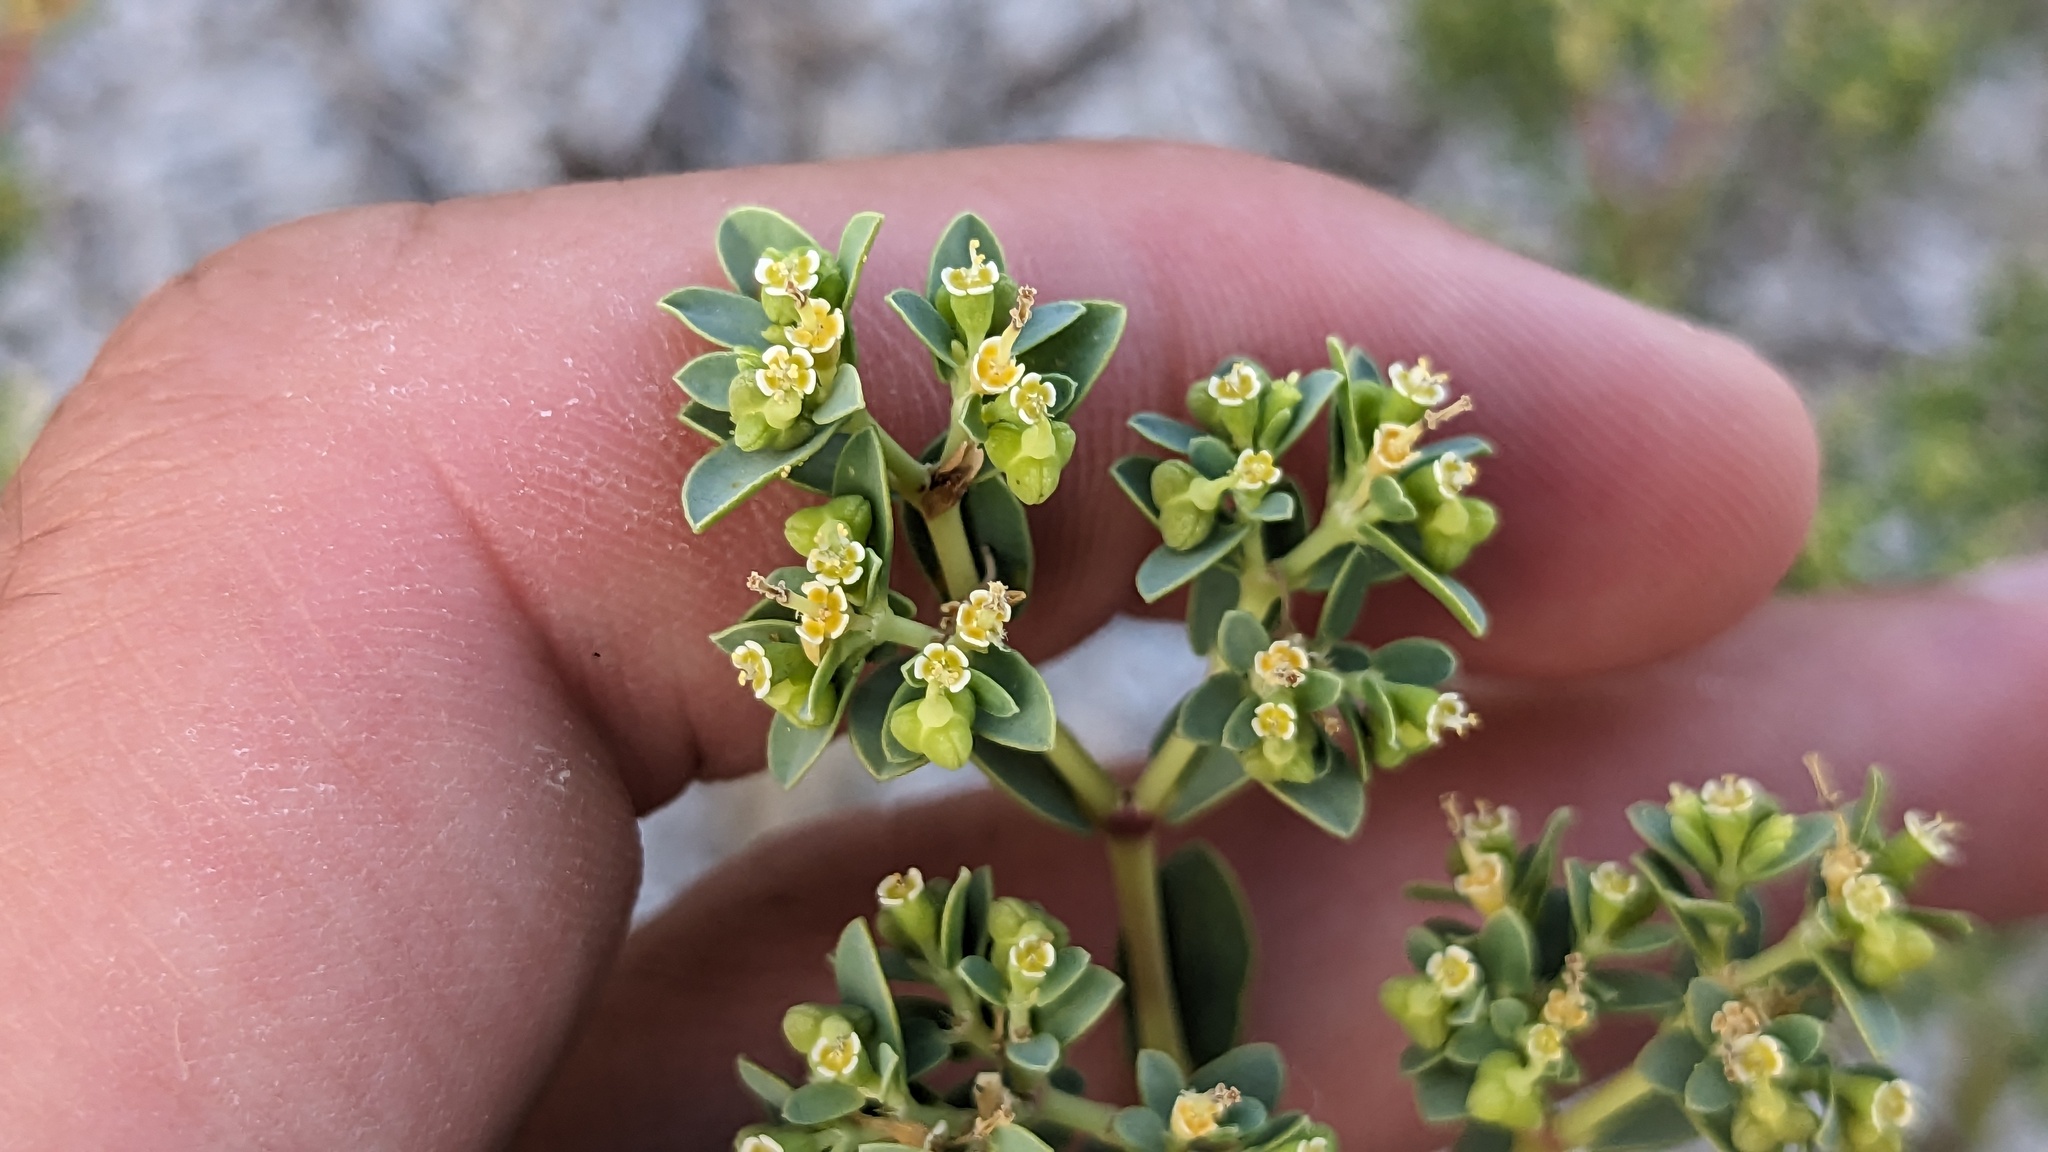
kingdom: Plantae
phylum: Tracheophyta
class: Magnoliopsida
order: Malpighiales
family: Euphorbiaceae
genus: Euphorbia
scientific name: Euphorbia mesembryanthemifolia
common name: Coastal beach sandmat
